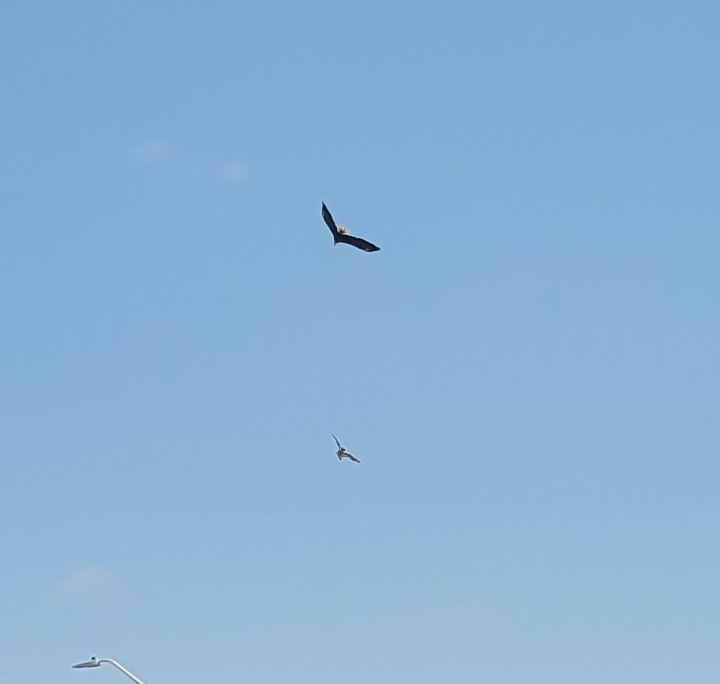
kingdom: Animalia
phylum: Chordata
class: Aves
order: Accipitriformes
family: Pandionidae
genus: Pandion
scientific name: Pandion haliaetus
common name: Osprey
